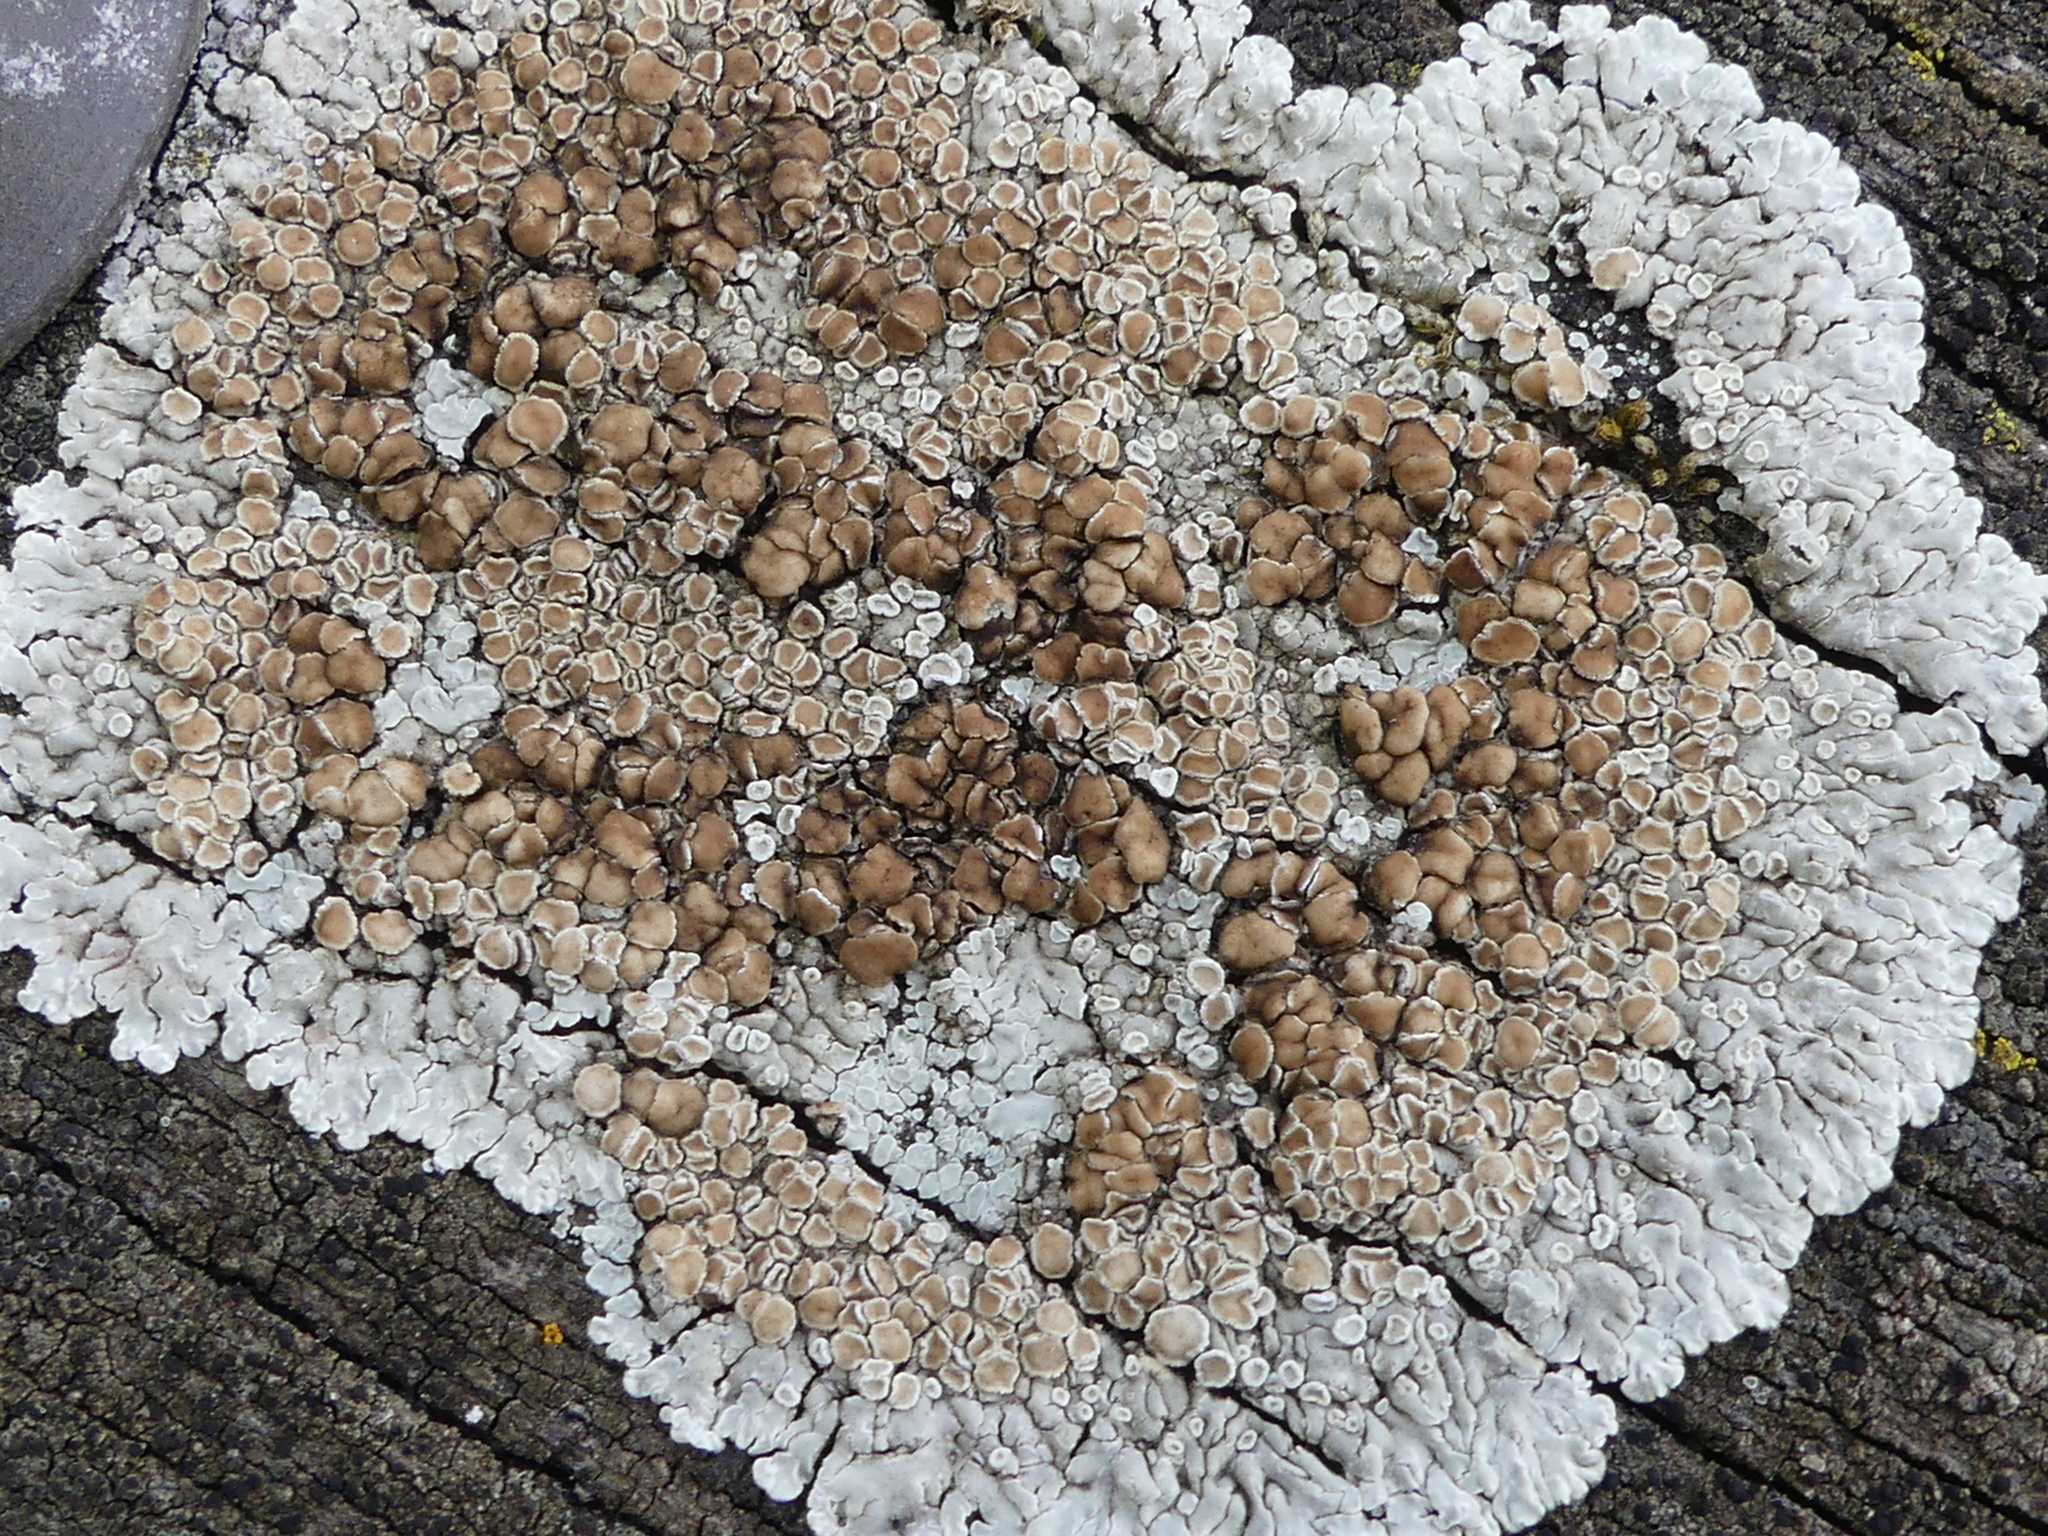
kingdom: Fungi
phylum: Ascomycota
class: Lecanoromycetes
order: Lecanorales
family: Lecanoraceae
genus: Protoparmeliopsis
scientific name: Protoparmeliopsis muralis
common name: Stonewall rim lichen
